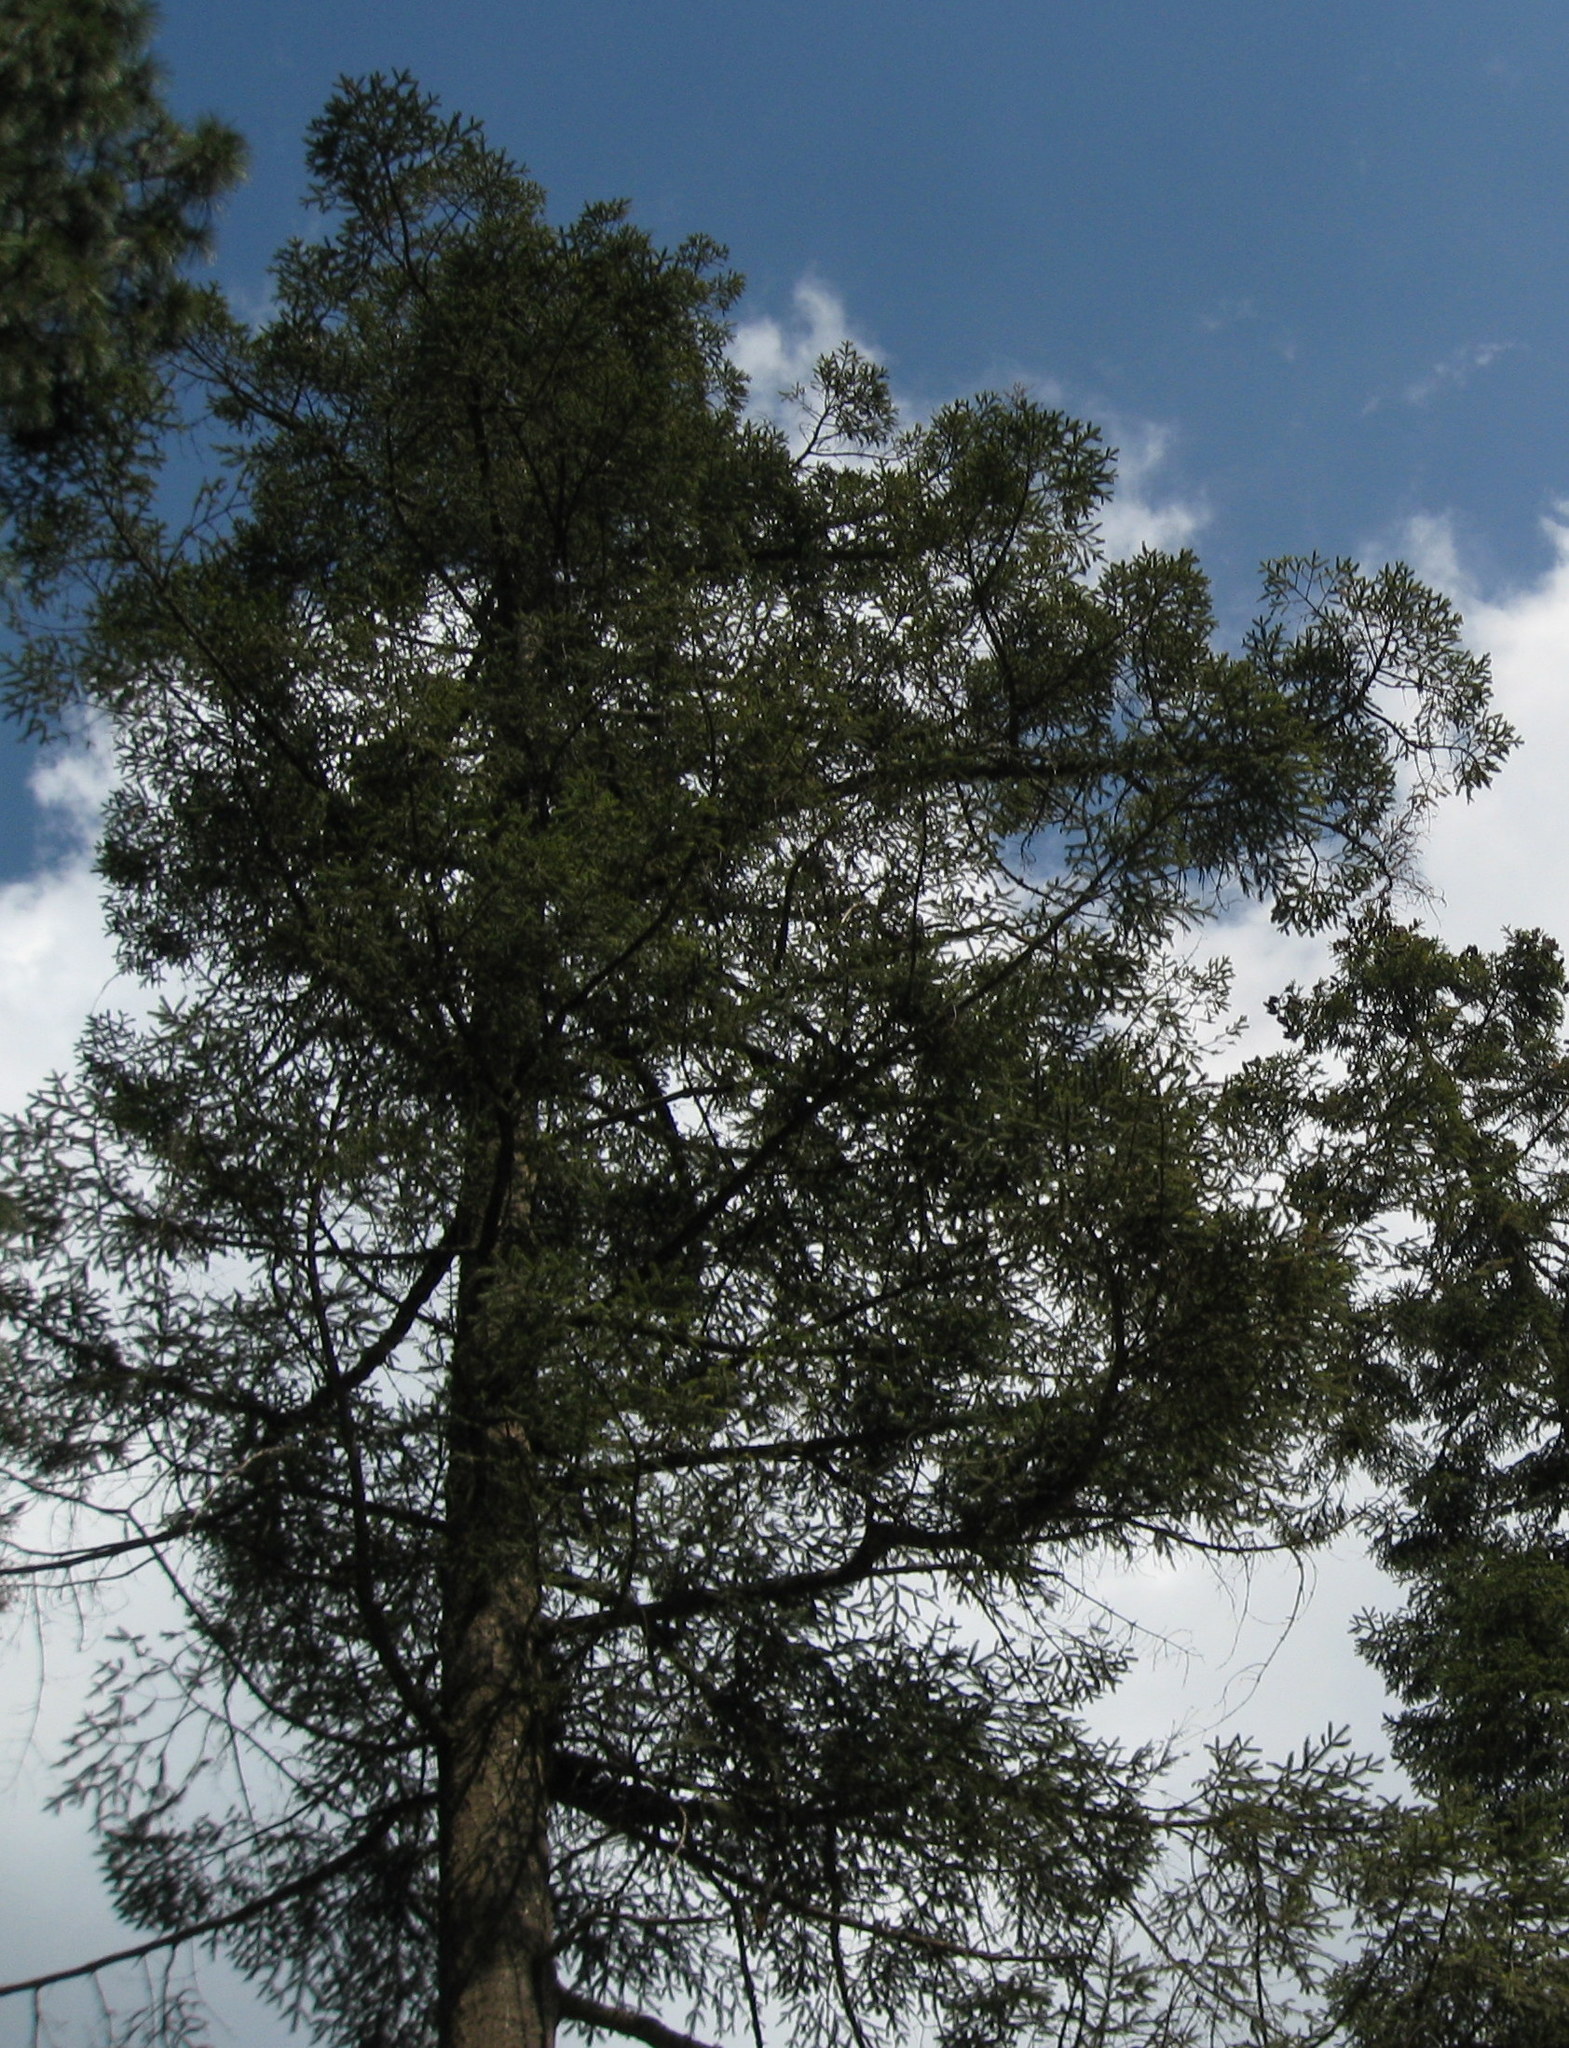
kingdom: Plantae
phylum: Tracheophyta
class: Pinopsida
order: Pinales
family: Pinaceae
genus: Abies
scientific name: Abies religiosa
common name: Sacred fir
